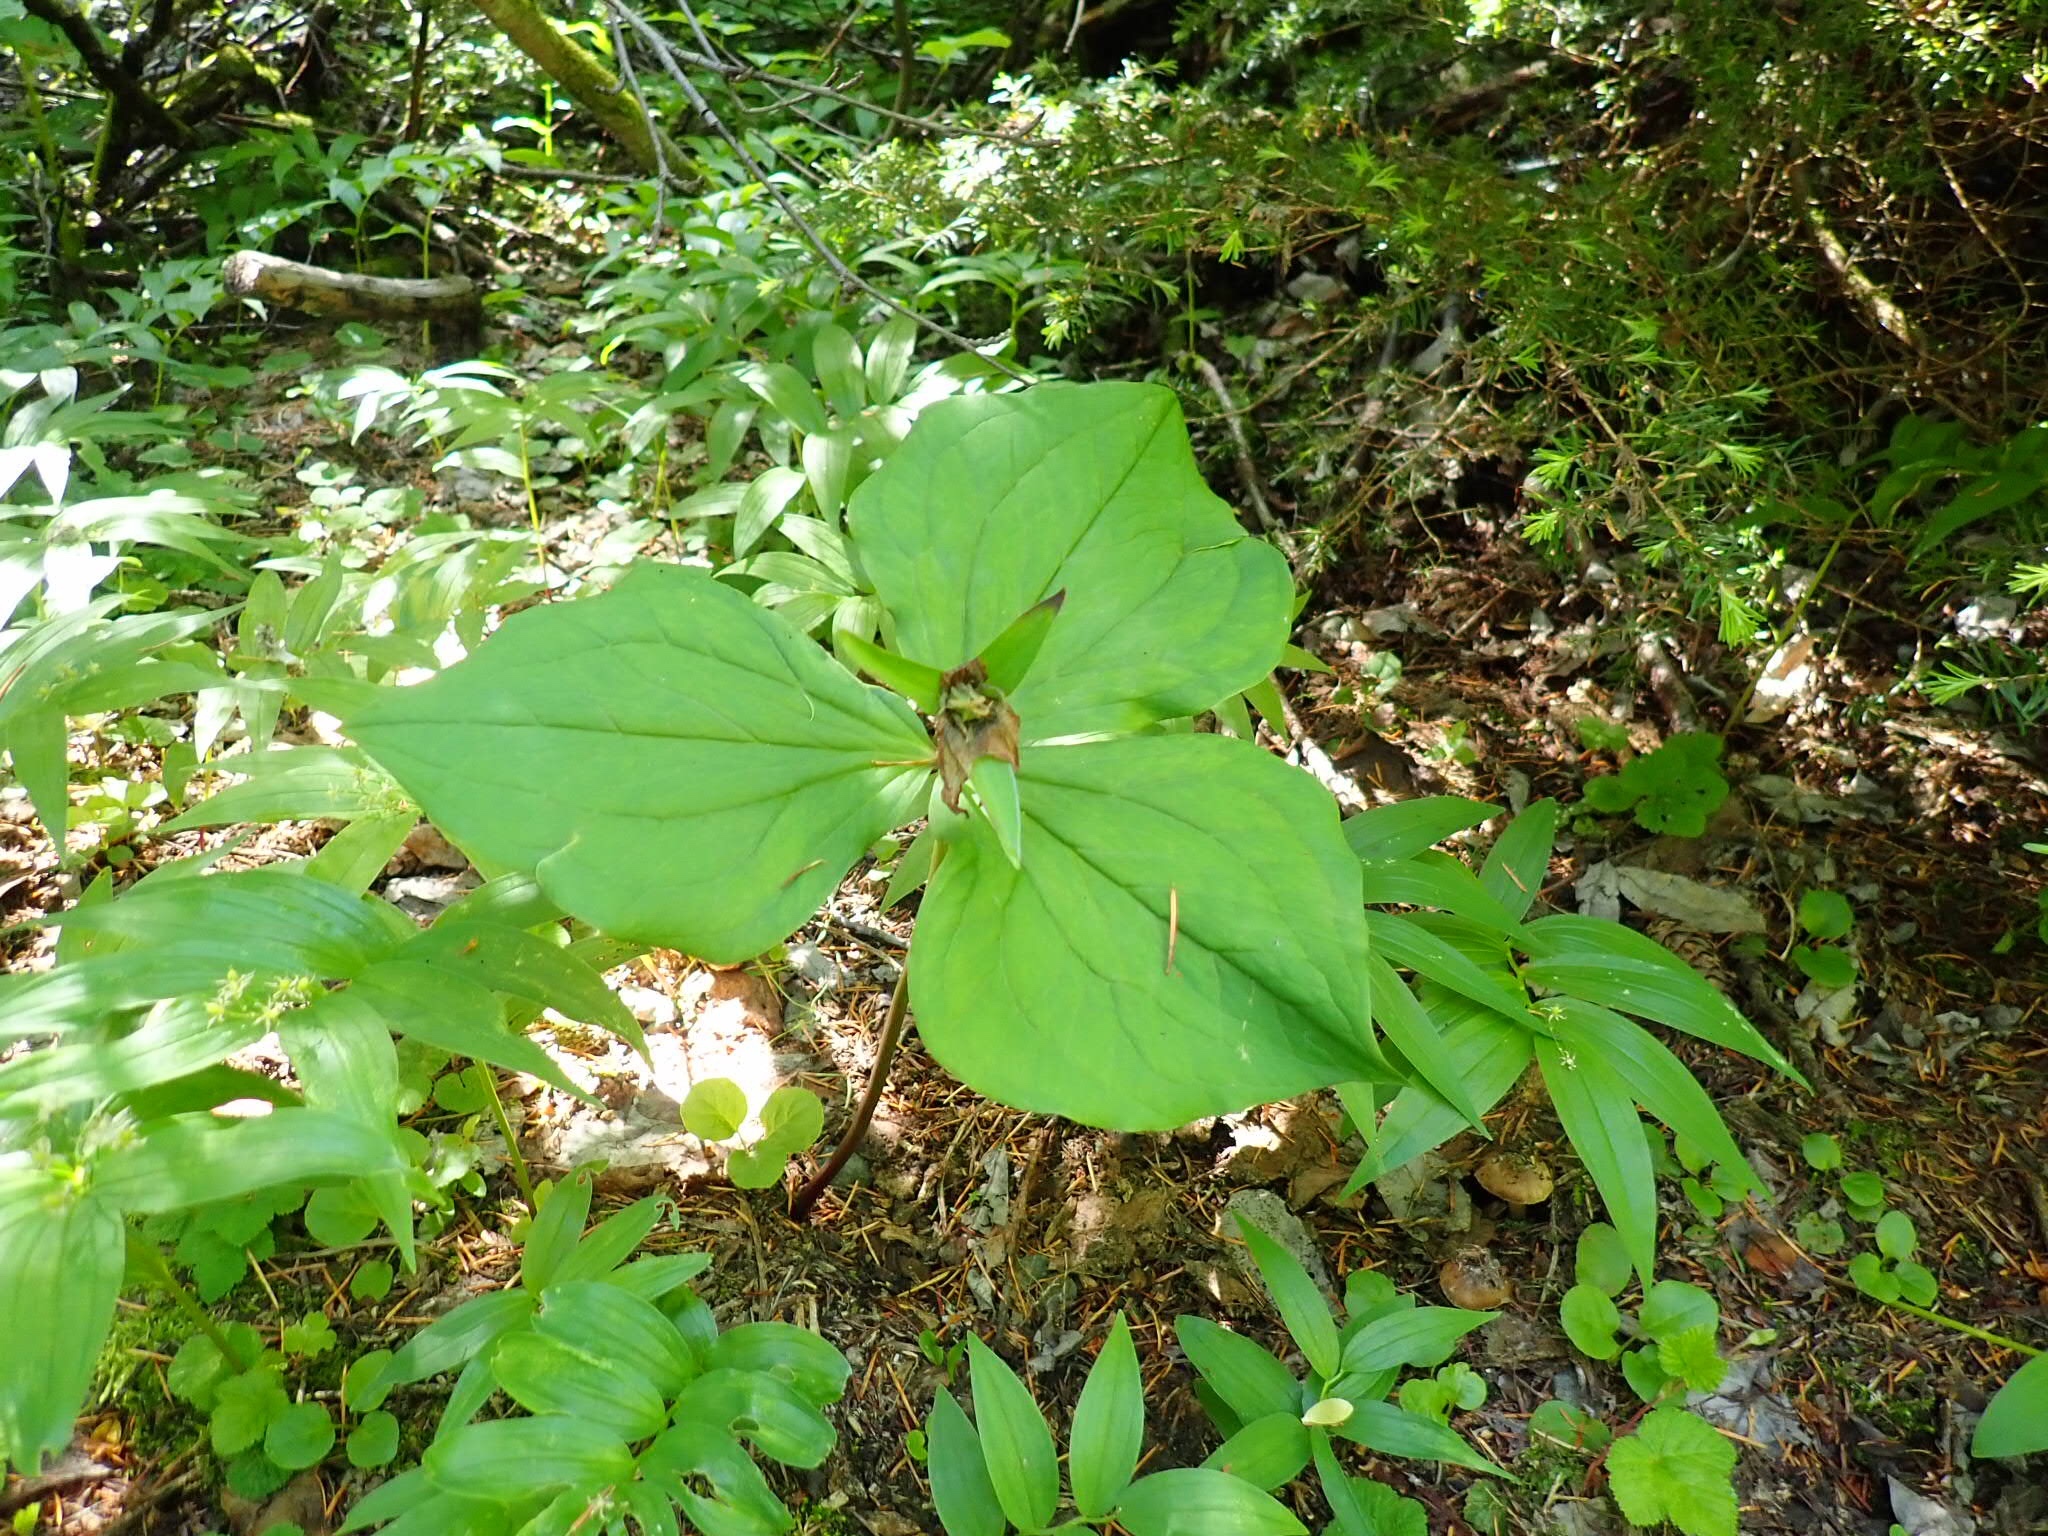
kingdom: Plantae
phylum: Tracheophyta
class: Liliopsida
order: Liliales
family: Melanthiaceae
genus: Trillium
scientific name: Trillium ovatum
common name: Pacific trillium
